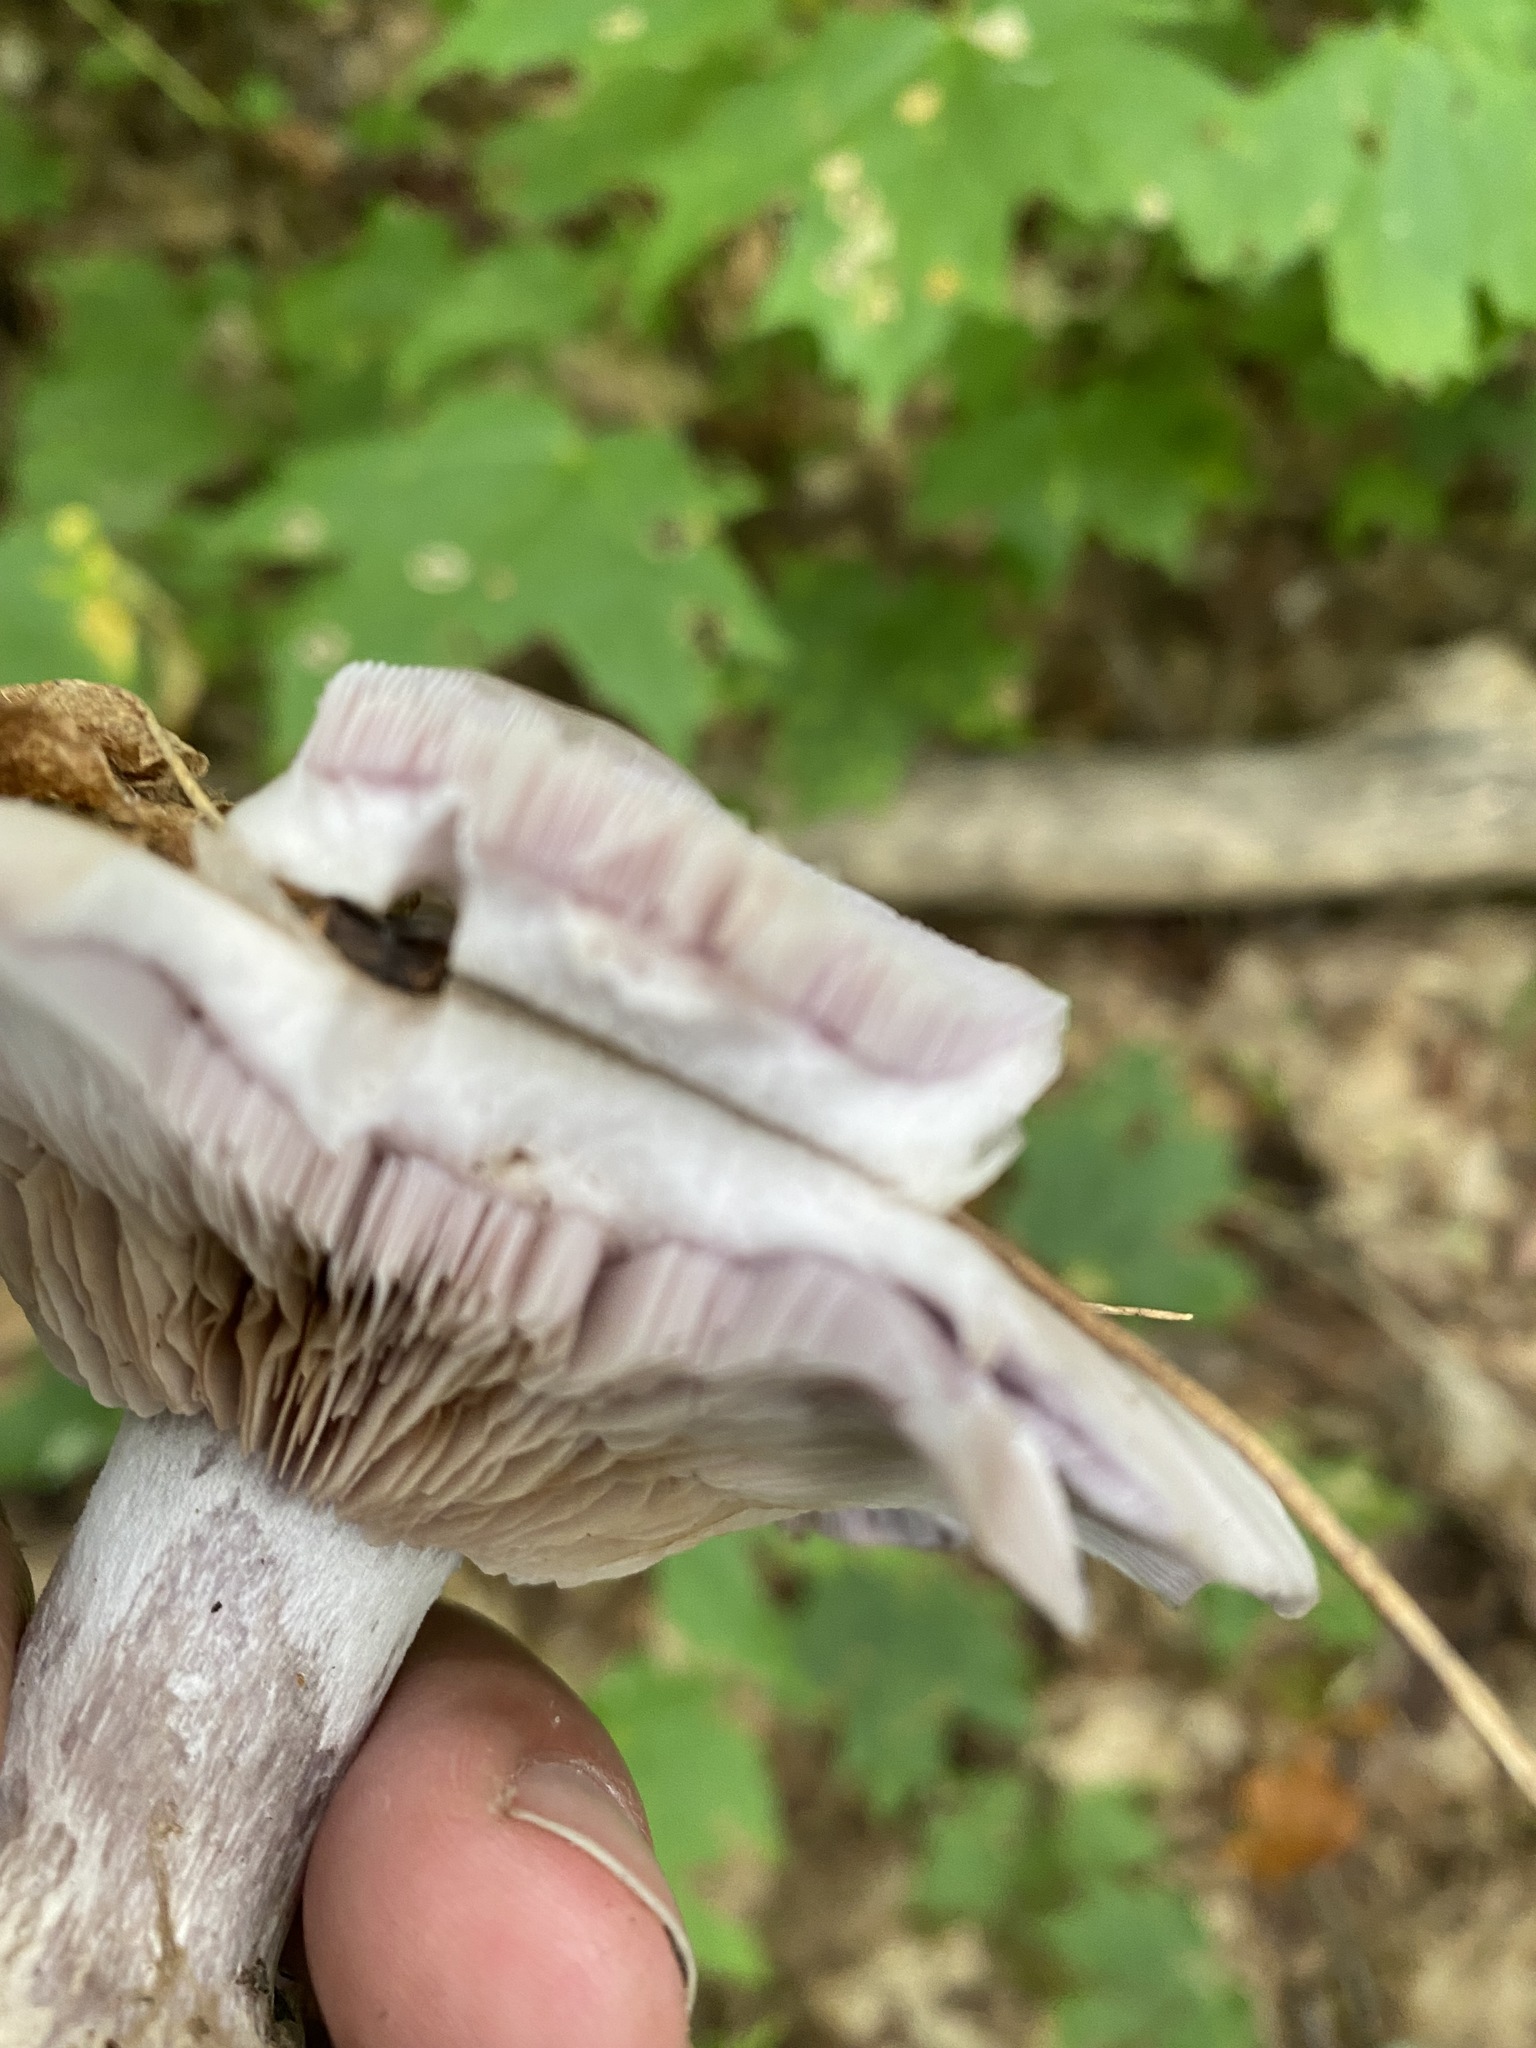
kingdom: Fungi
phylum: Basidiomycota
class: Agaricomycetes
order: Agaricales
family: Tricholomataceae
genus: Collybia
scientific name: Collybia
